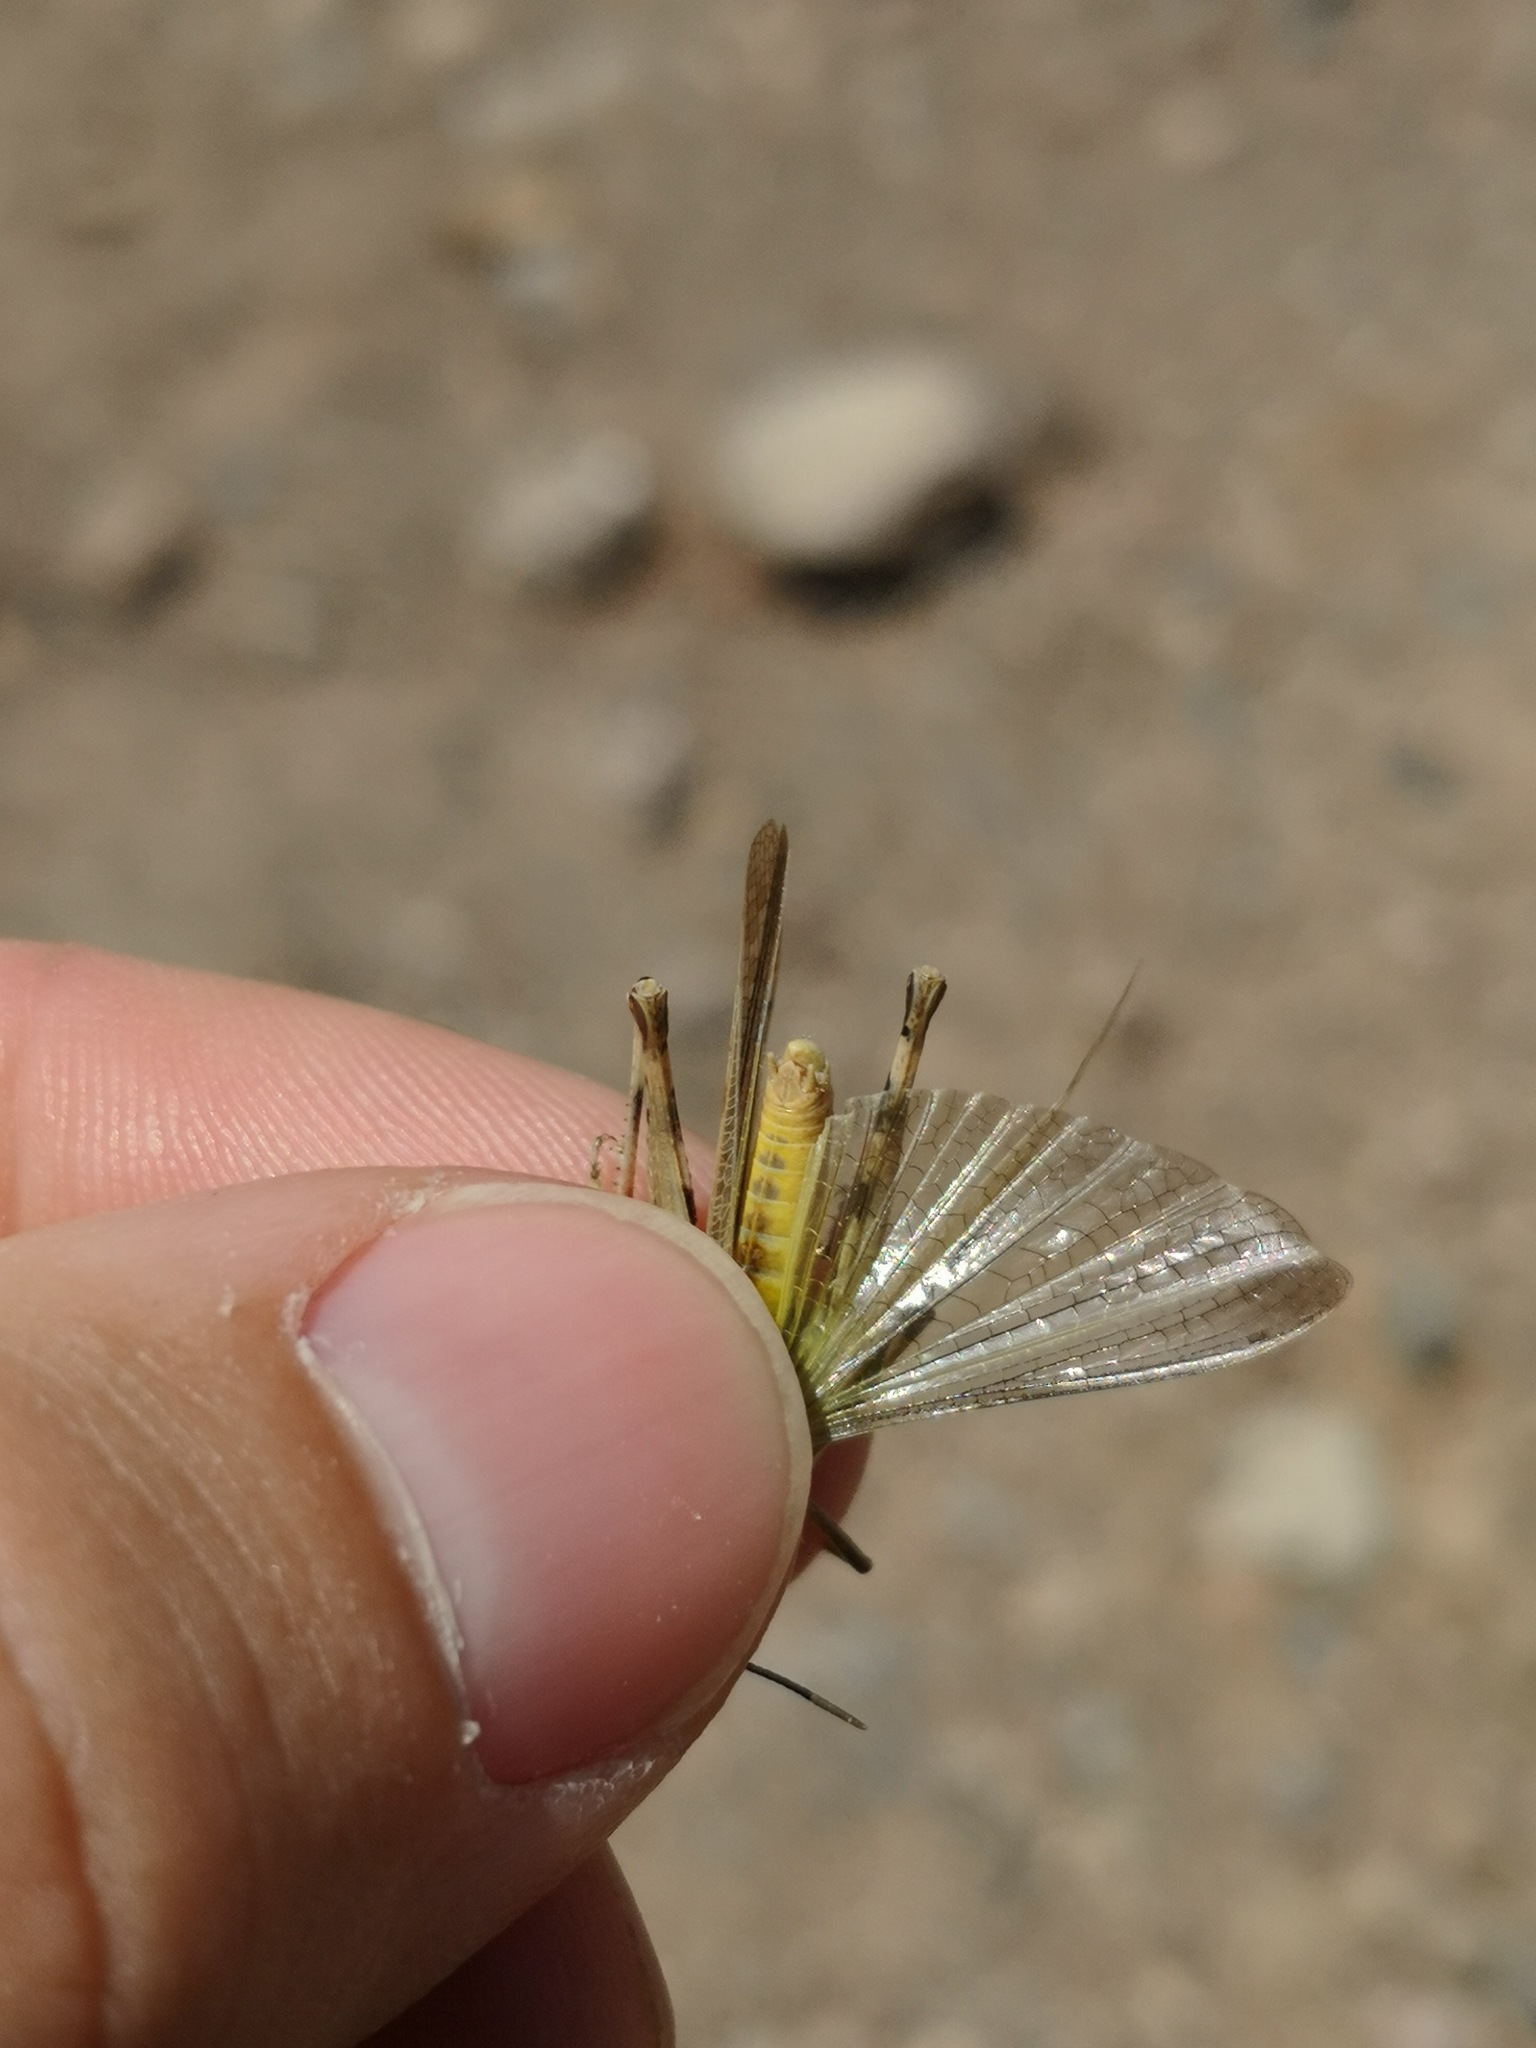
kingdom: Animalia
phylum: Arthropoda
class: Insecta
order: Orthoptera
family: Acrididae
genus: Aiolopus
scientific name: Aiolopus thalassinus
